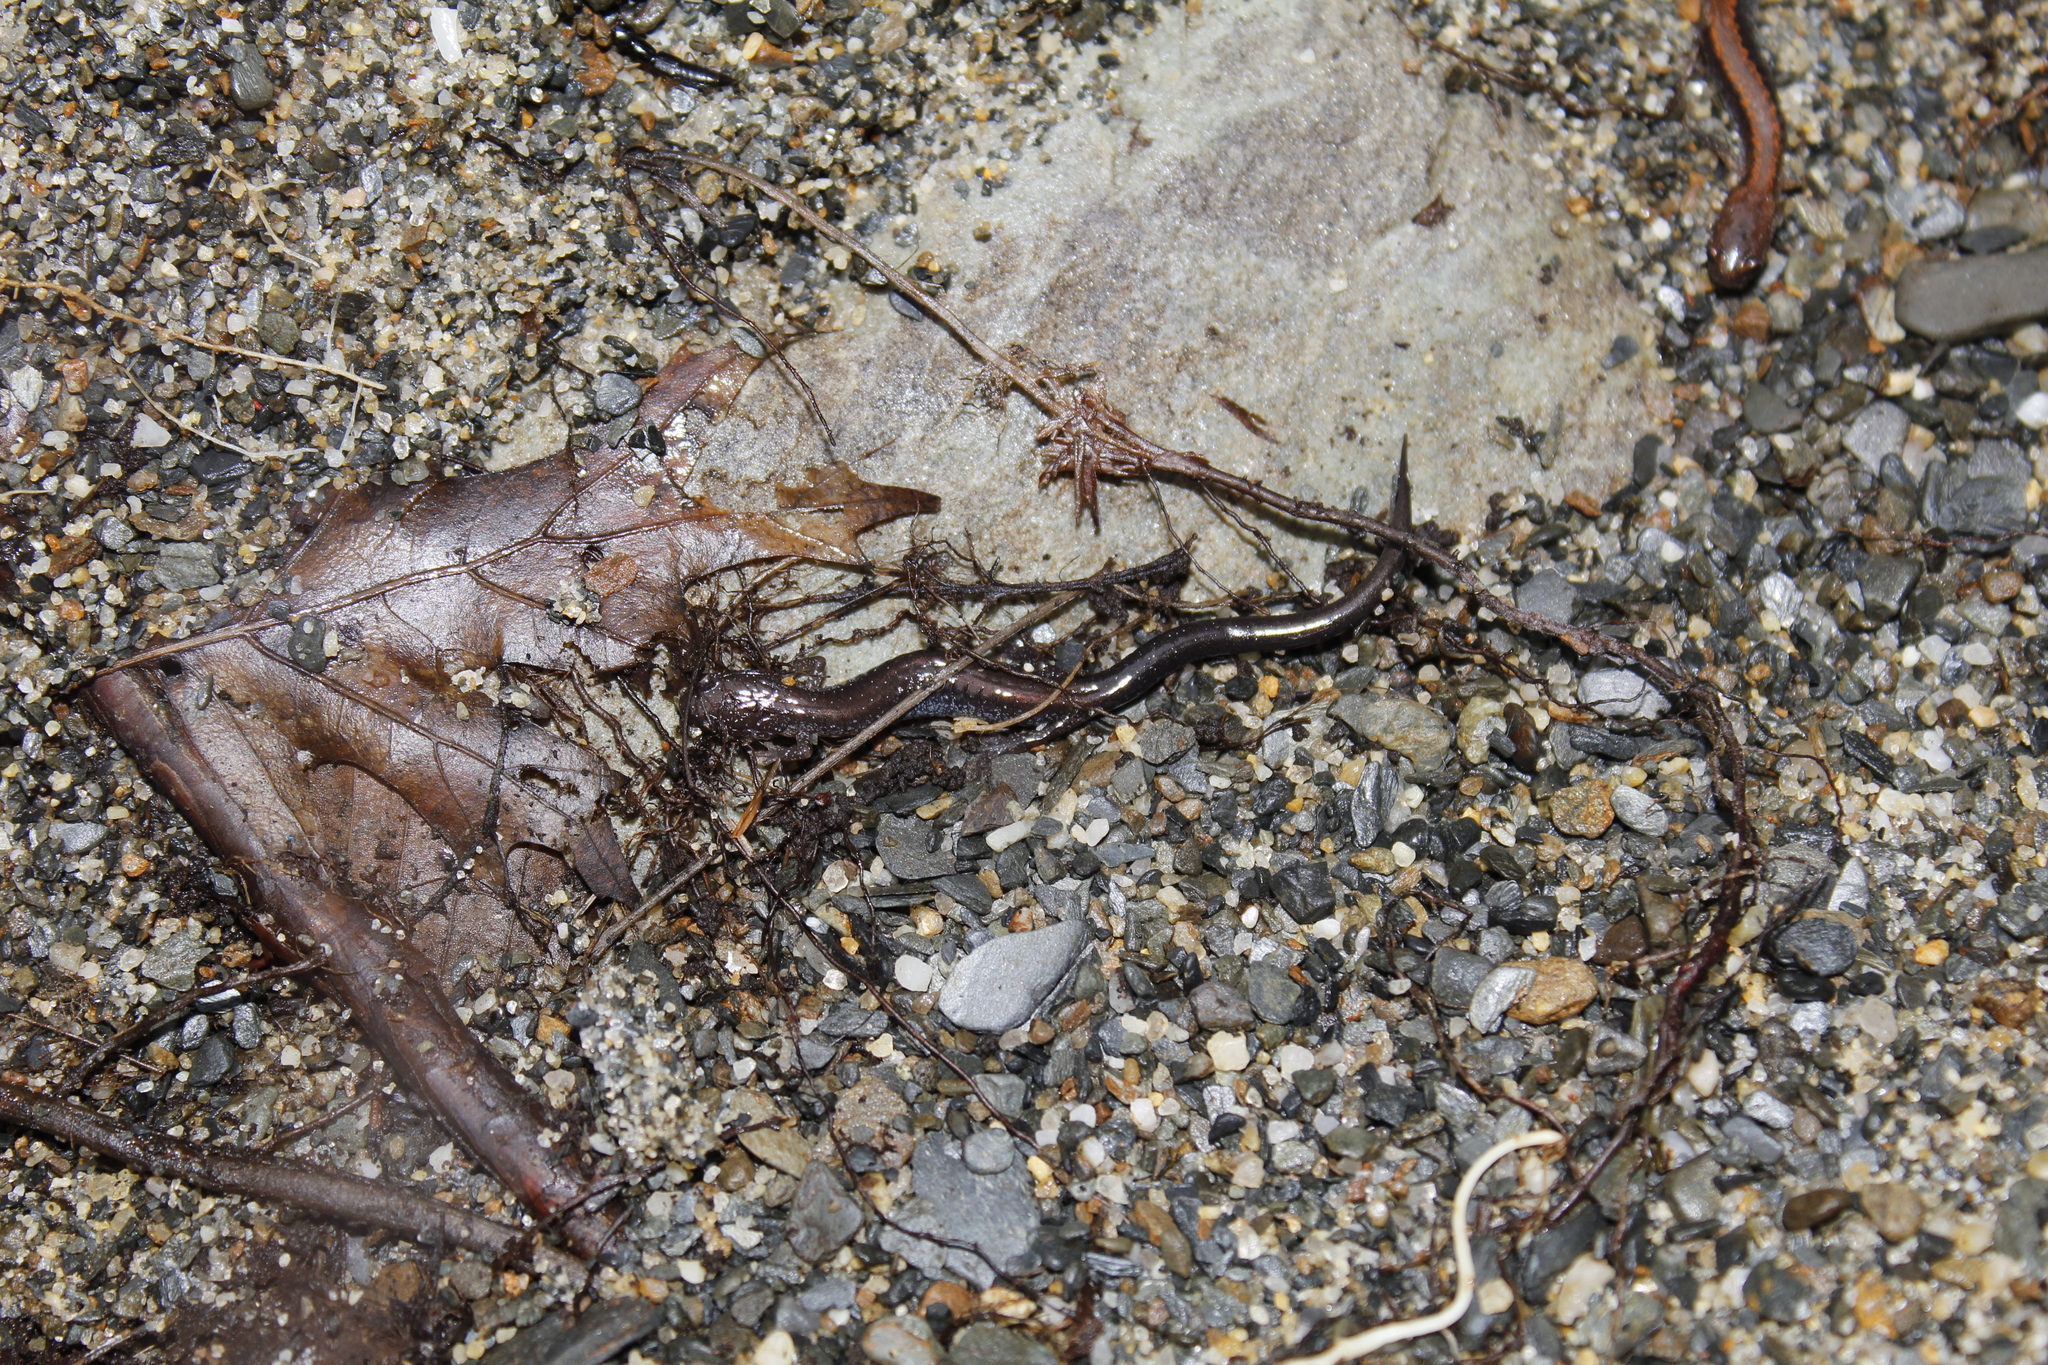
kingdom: Animalia
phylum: Chordata
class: Amphibia
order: Caudata
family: Plethodontidae
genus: Plethodon
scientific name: Plethodon cinereus
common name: Redback salamander
